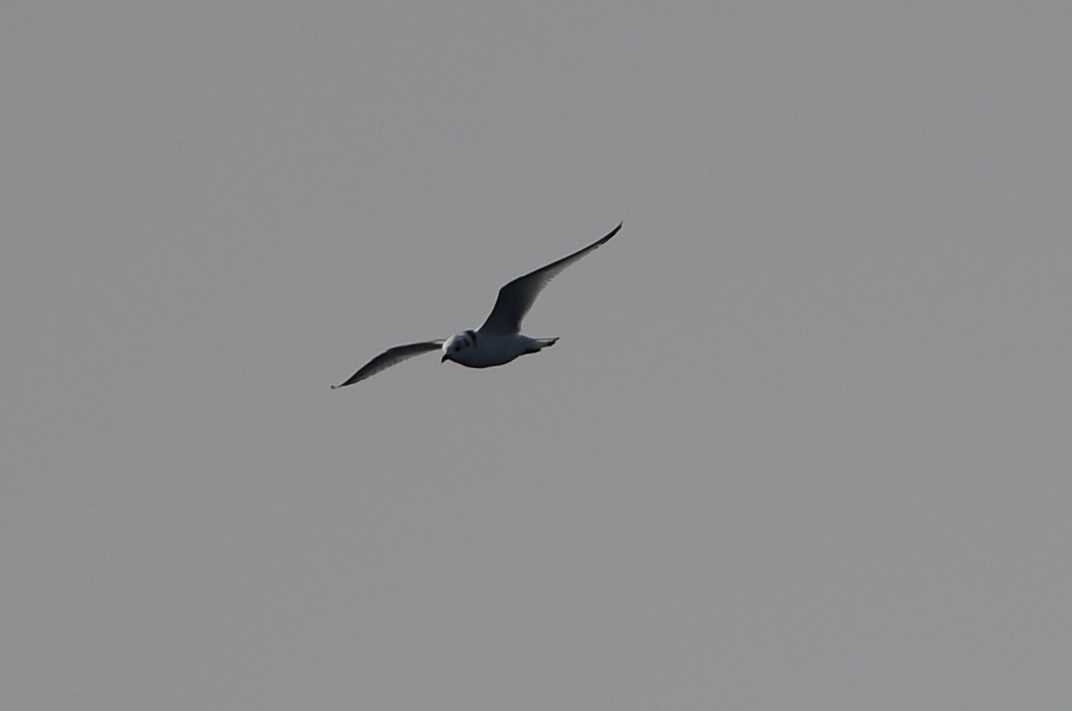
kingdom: Animalia
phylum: Chordata
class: Aves
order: Charadriiformes
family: Laridae
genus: Rissa
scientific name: Rissa tridactyla
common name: Black-legged kittiwake
